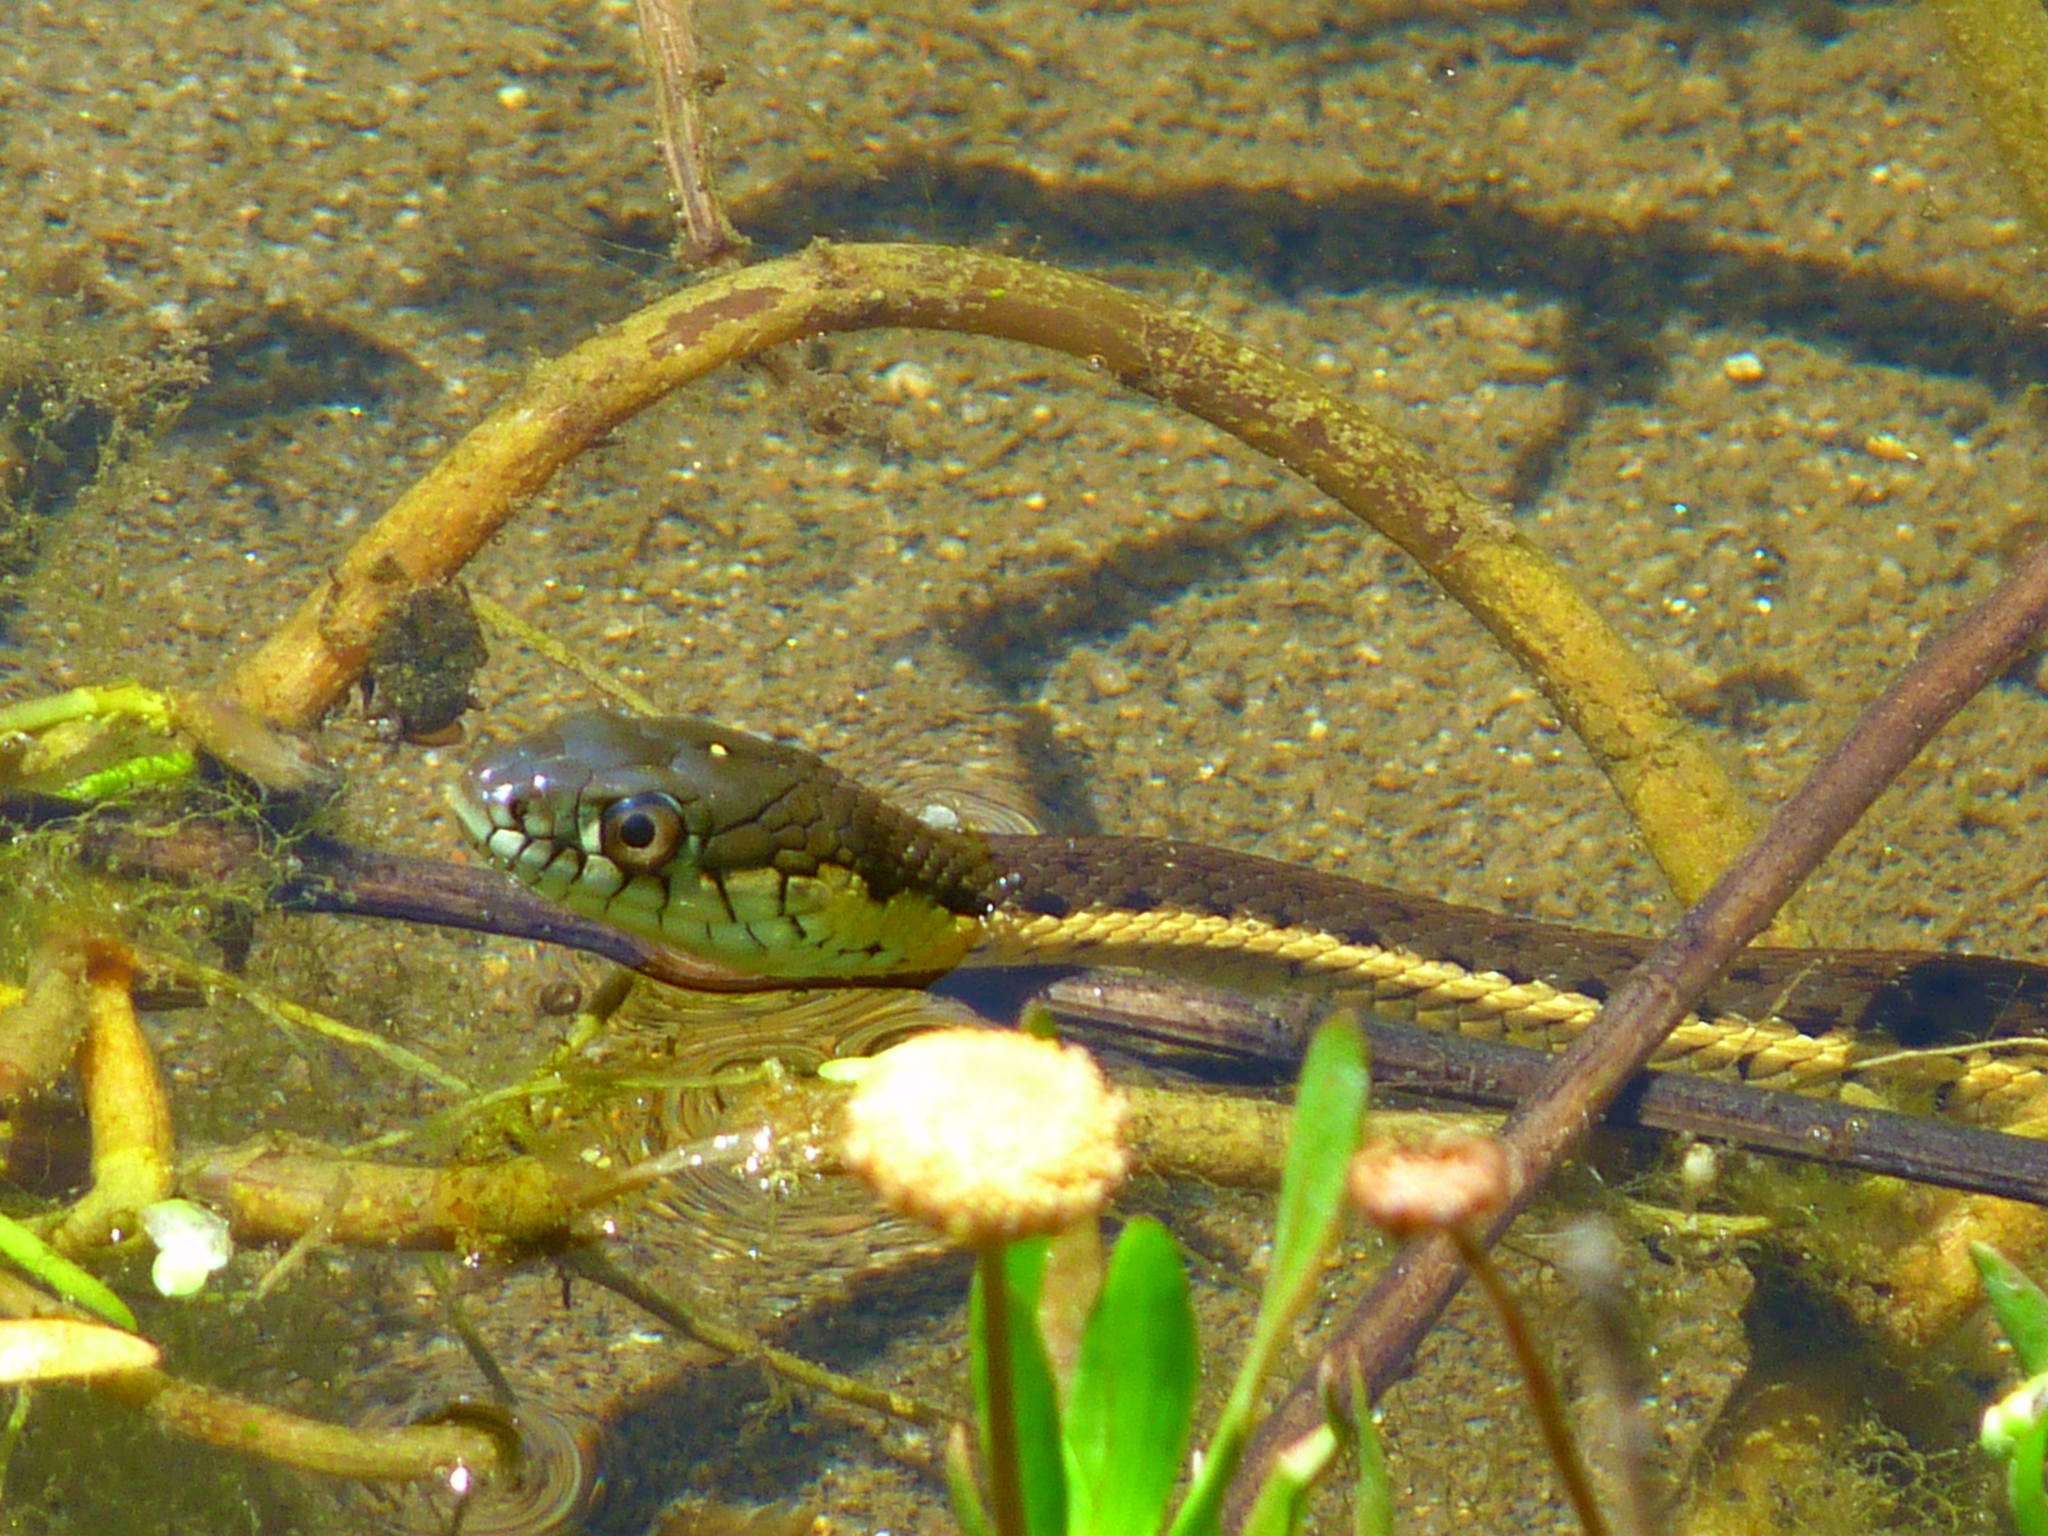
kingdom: Animalia
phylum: Chordata
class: Squamata
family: Colubridae
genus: Thamnophis
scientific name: Thamnophis hammondii
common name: Two-striped garter snake
